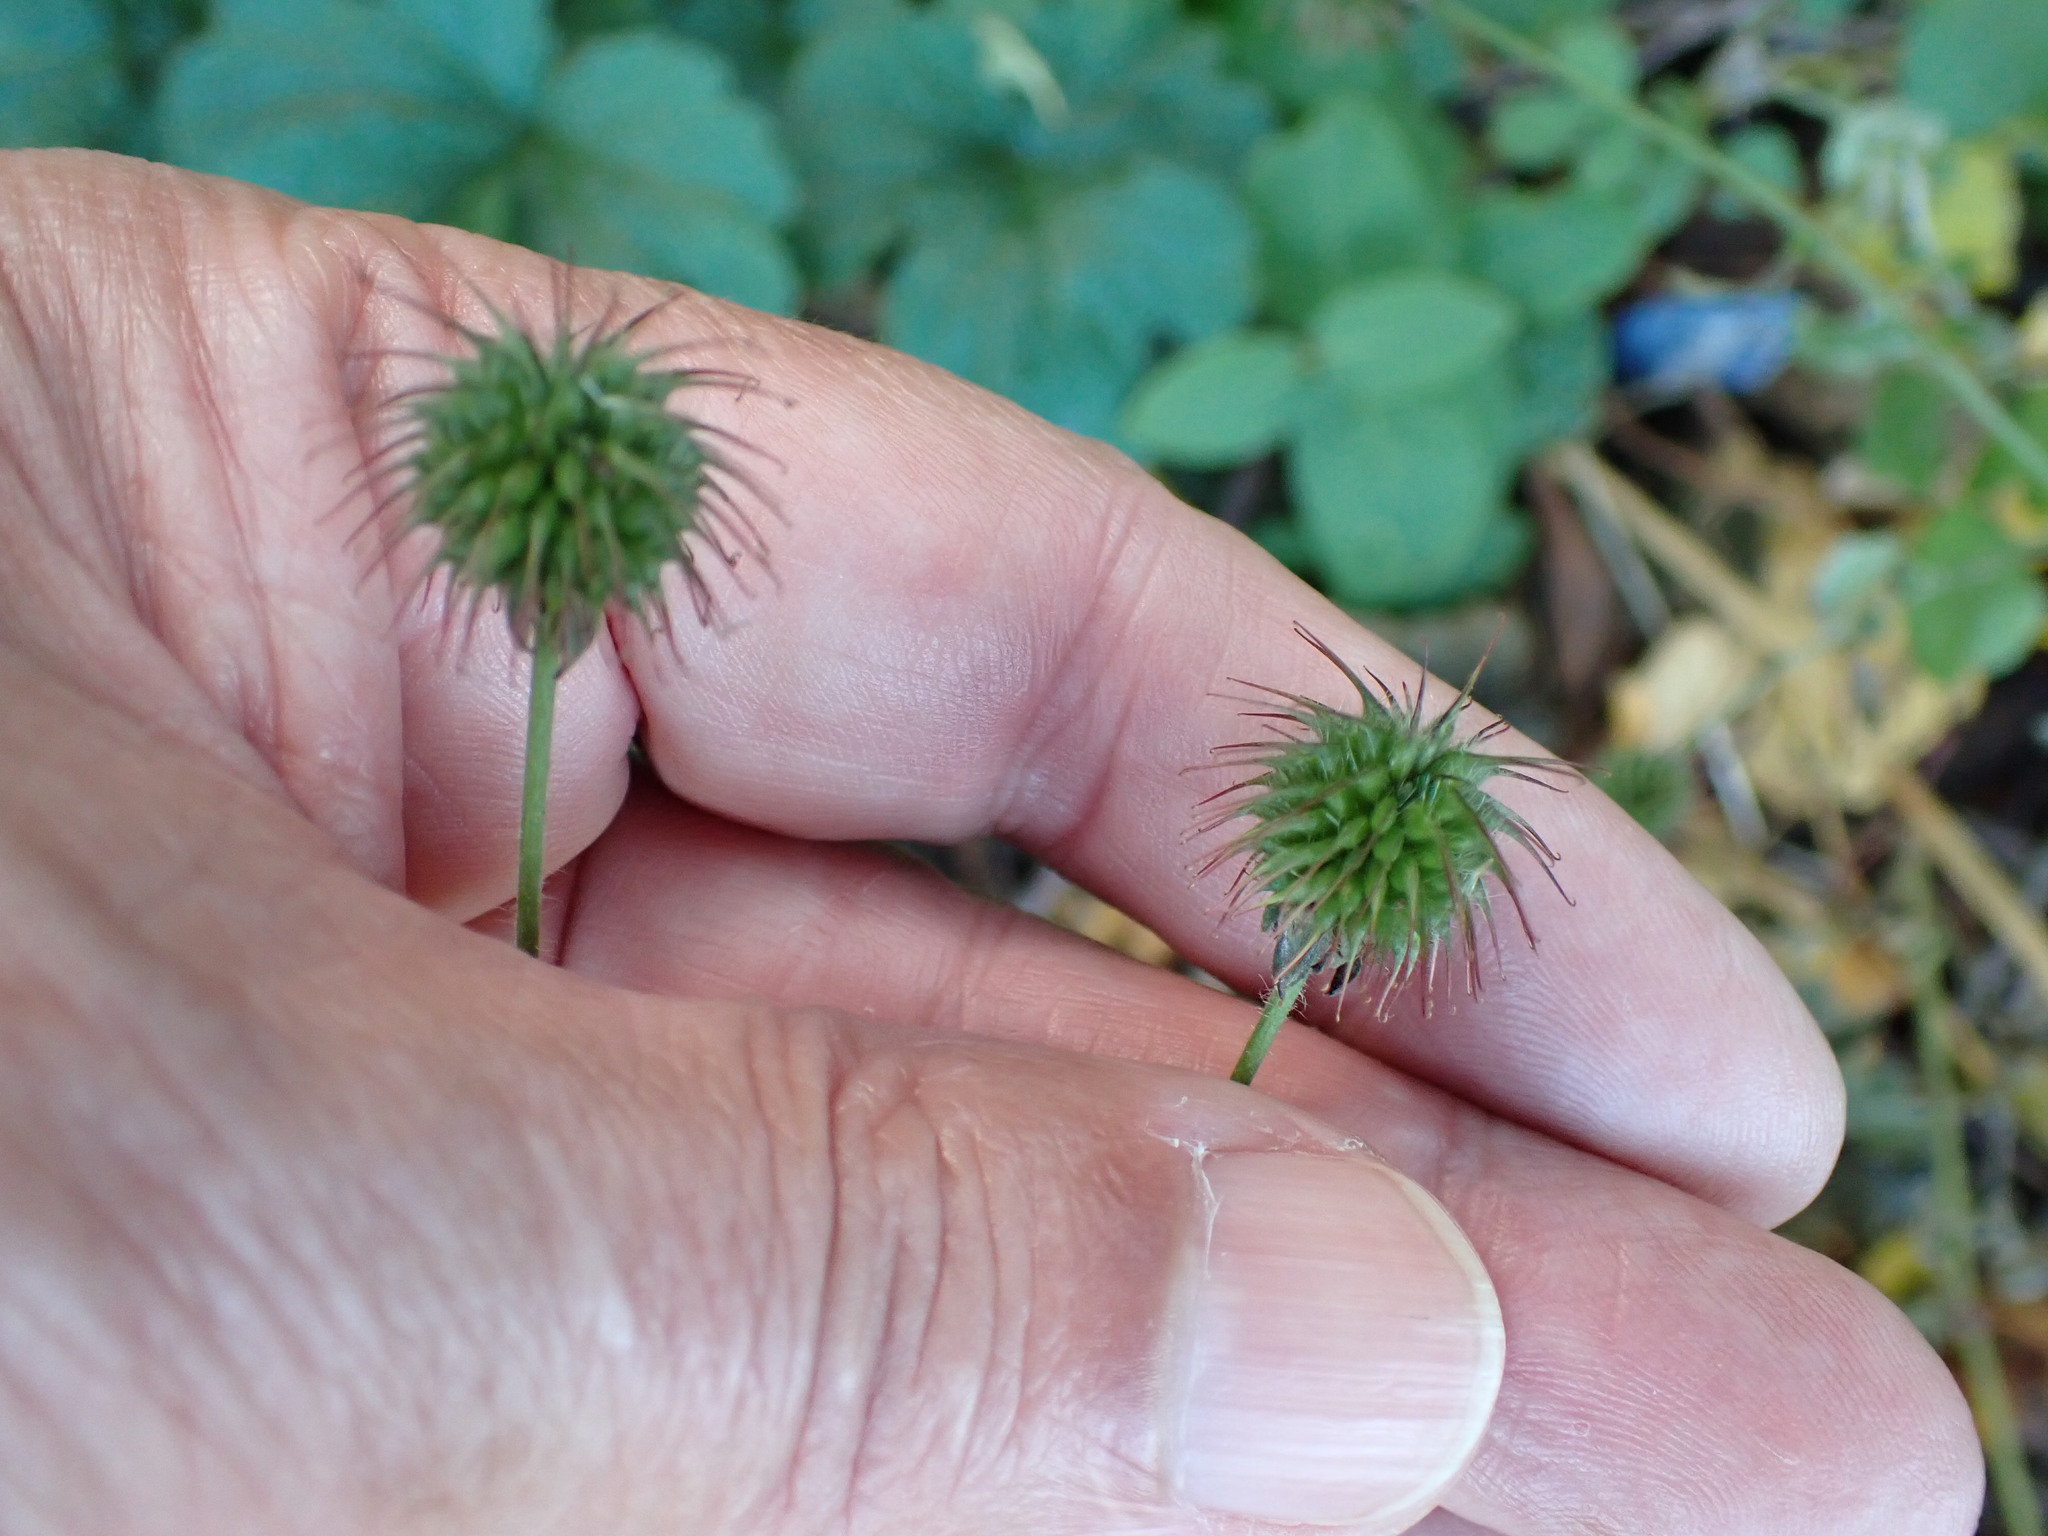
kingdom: Plantae
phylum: Tracheophyta
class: Magnoliopsida
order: Rosales
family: Rosaceae
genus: Geum
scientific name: Geum urbanum
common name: Wood avens
